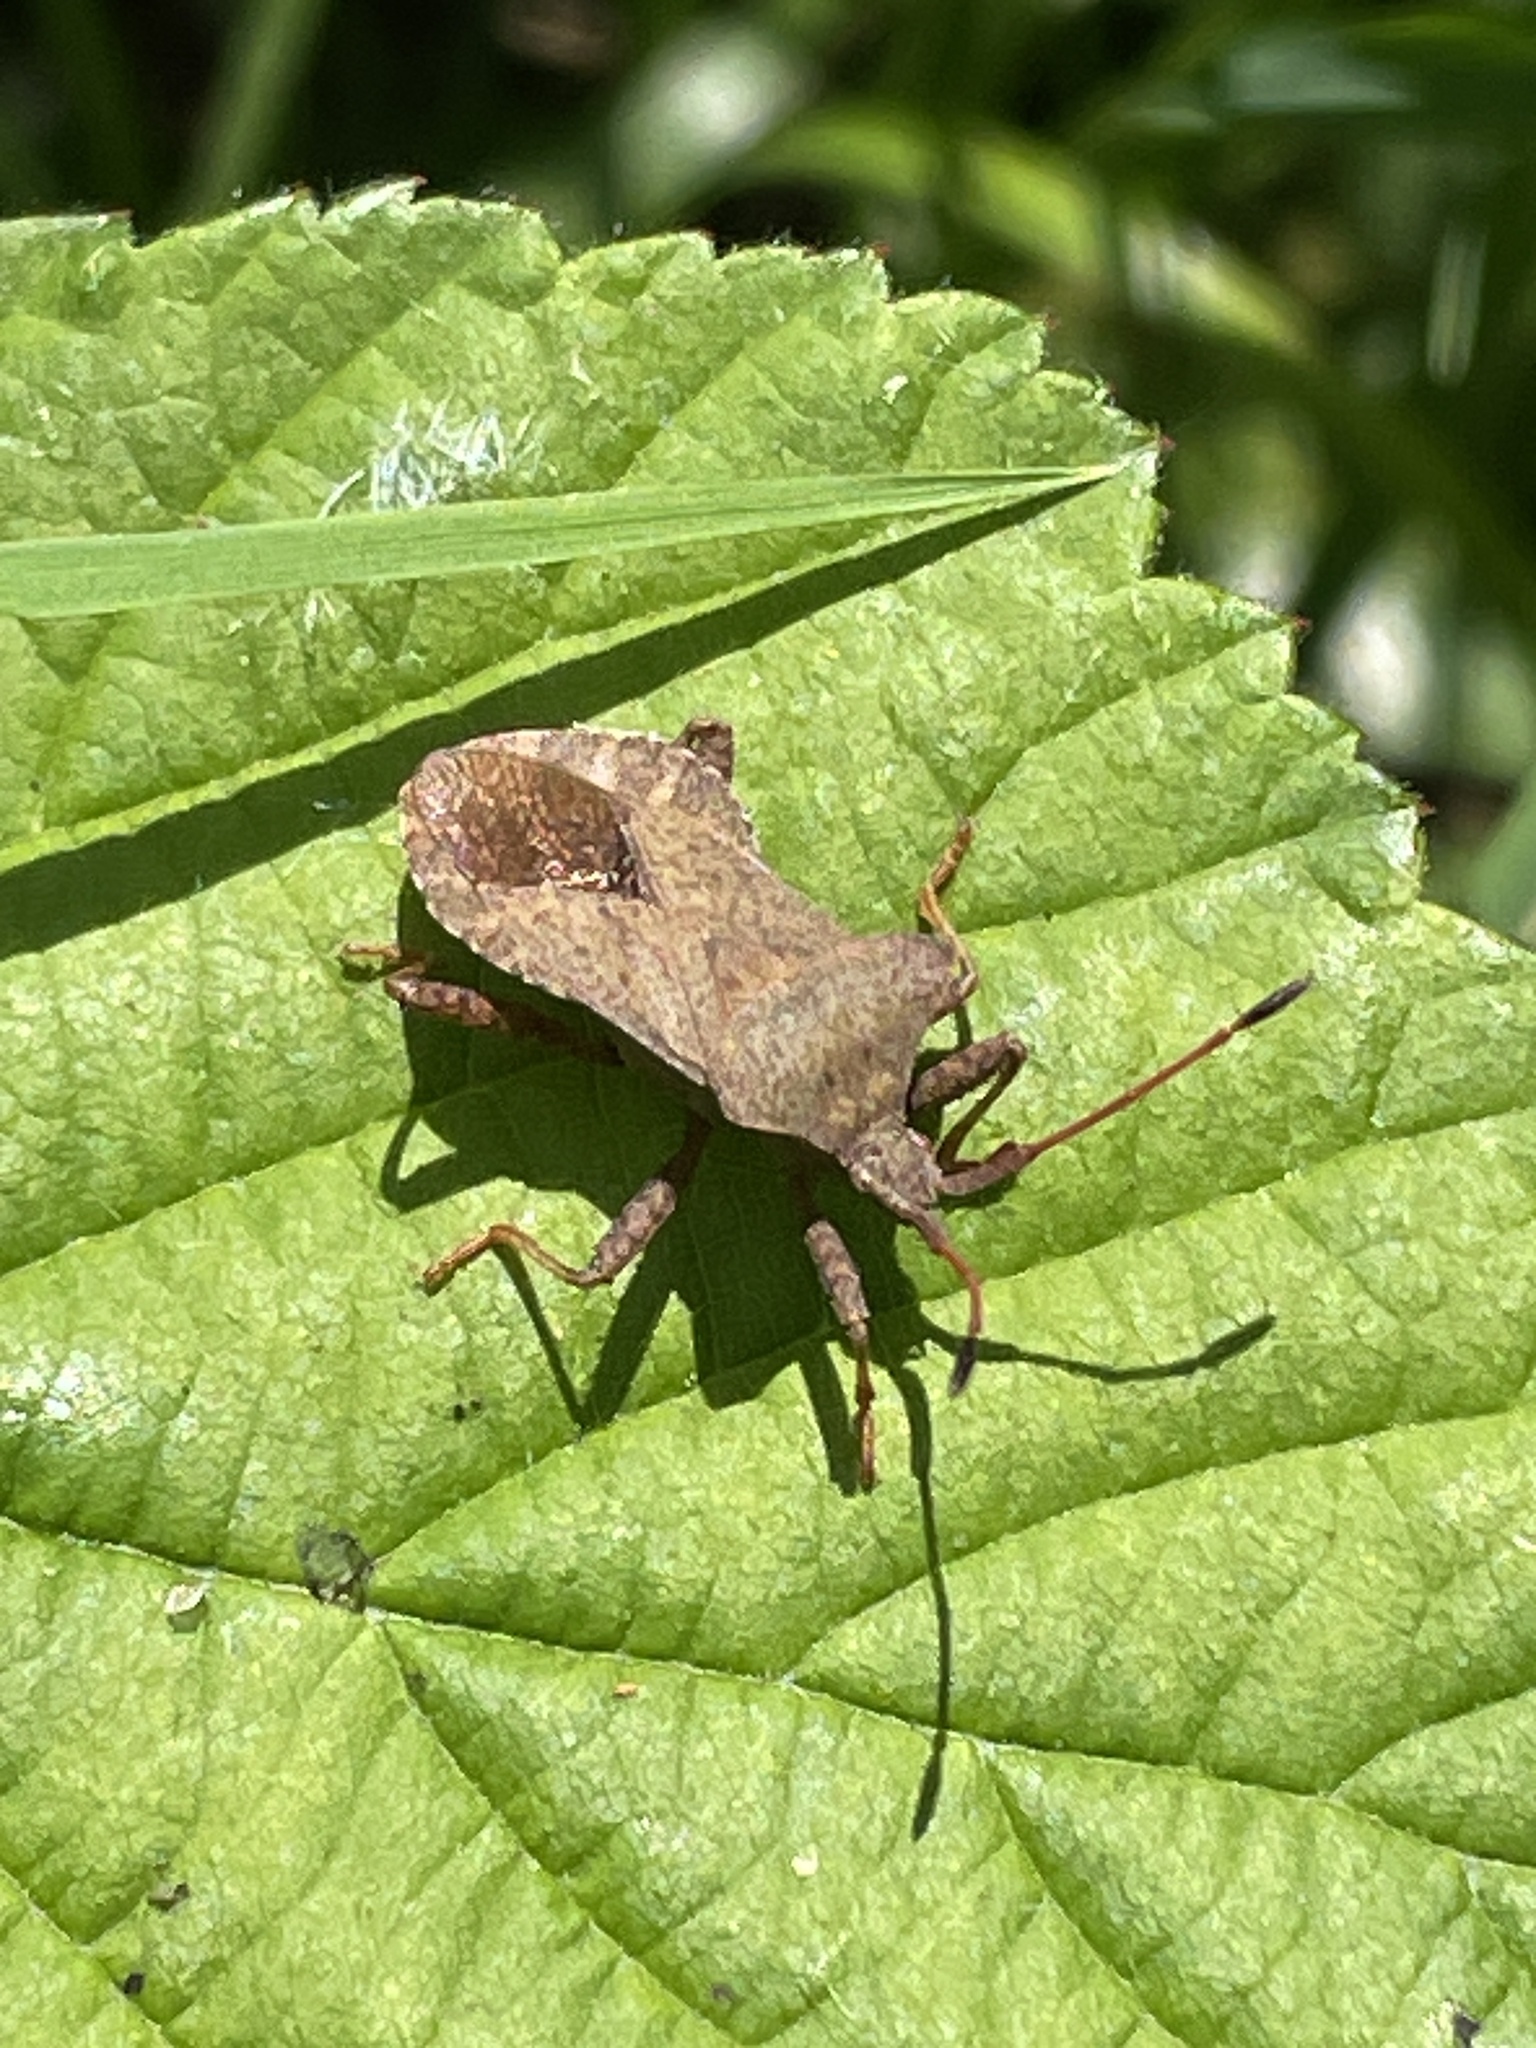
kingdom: Animalia
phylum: Arthropoda
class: Insecta
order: Hemiptera
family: Coreidae
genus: Coreus
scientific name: Coreus marginatus
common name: Dock bug
